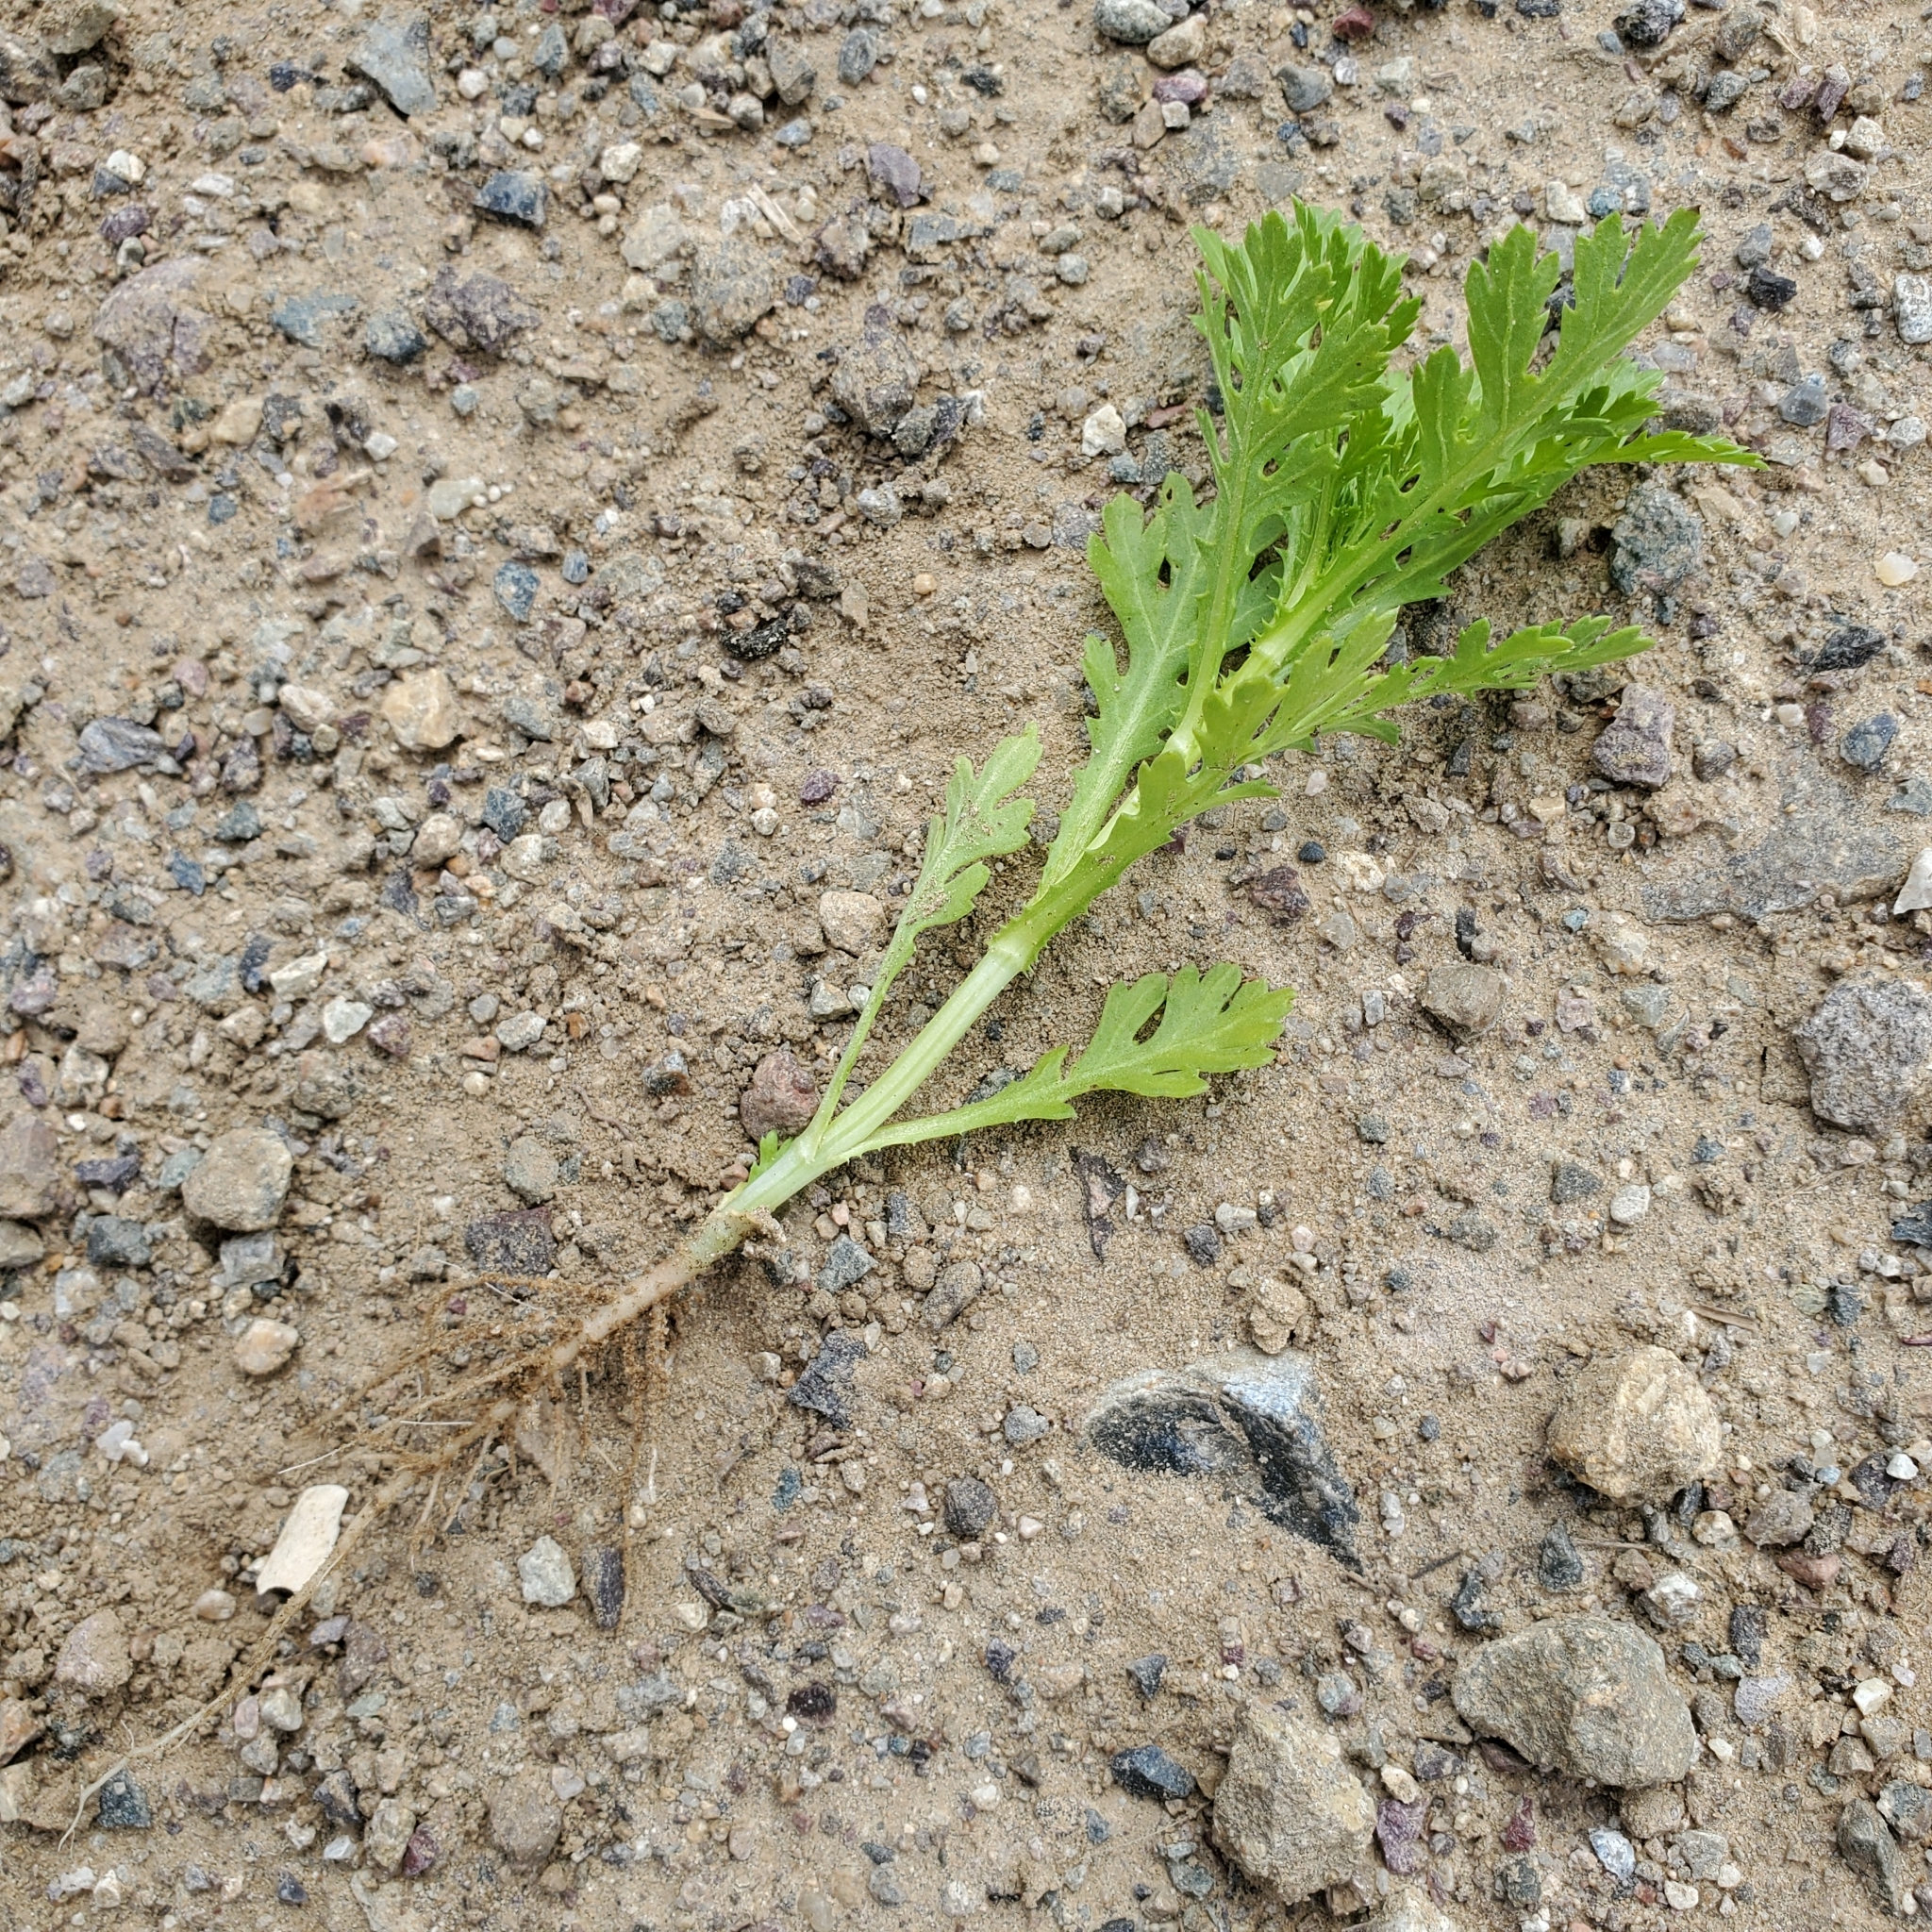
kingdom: Plantae
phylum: Tracheophyta
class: Magnoliopsida
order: Asterales
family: Asteraceae
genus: Glebionis
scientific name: Glebionis coronaria
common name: Crowndaisy
